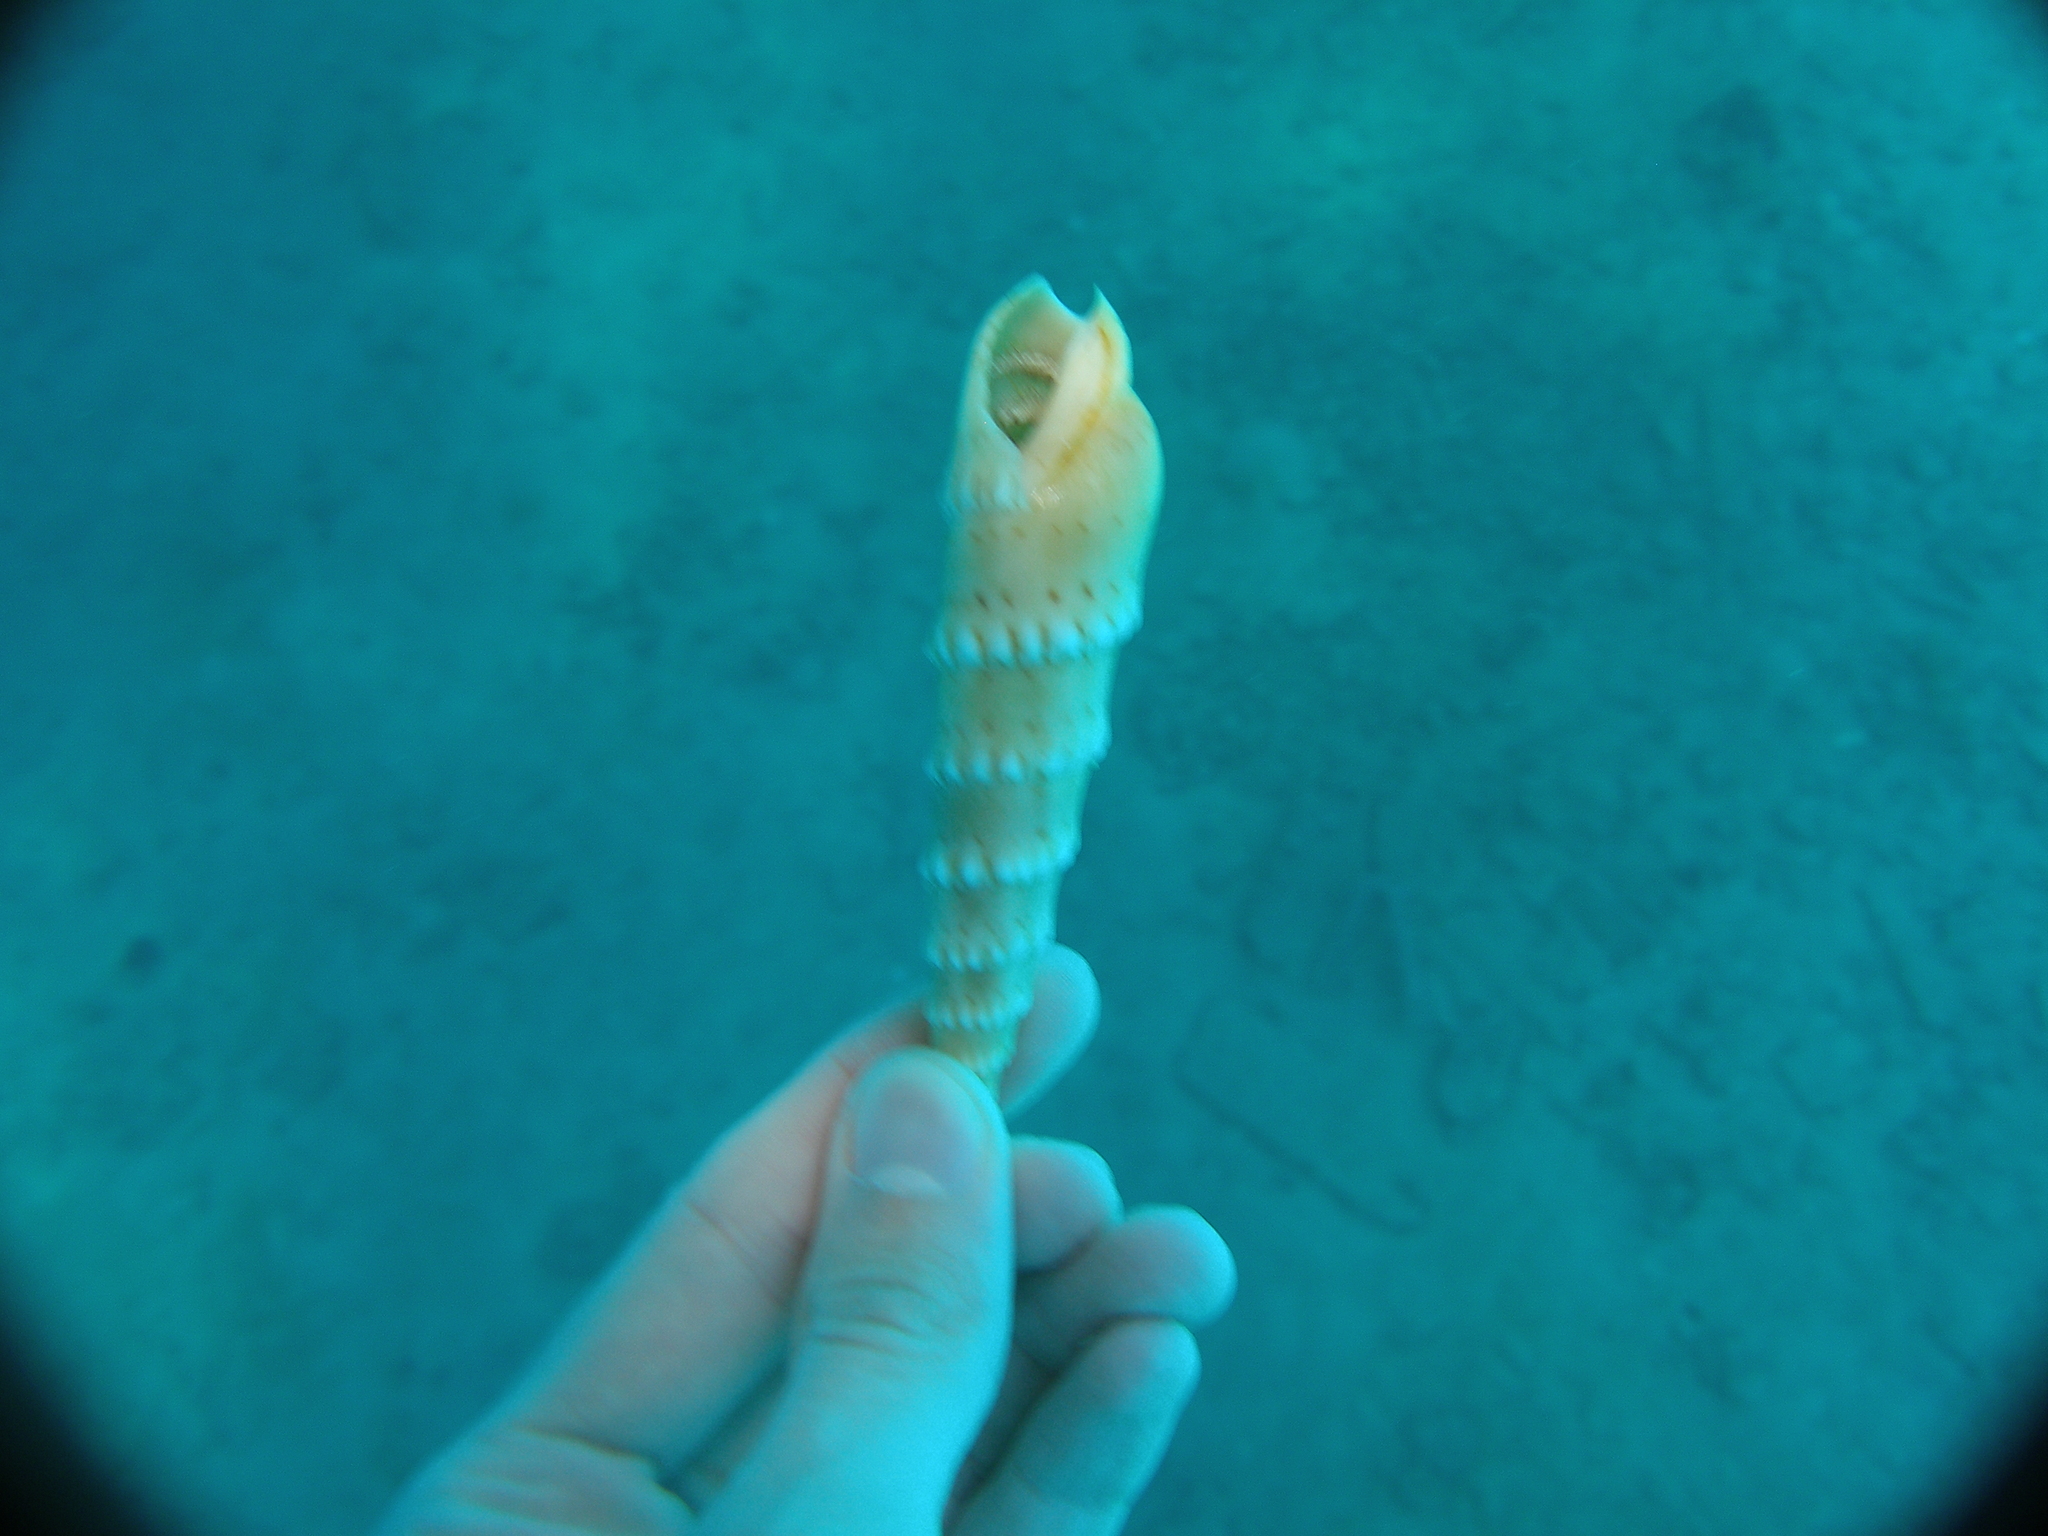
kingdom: Animalia
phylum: Mollusca
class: Gastropoda
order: Neogastropoda
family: Terebridae
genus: Oxymeris
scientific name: Oxymeris crenulata
